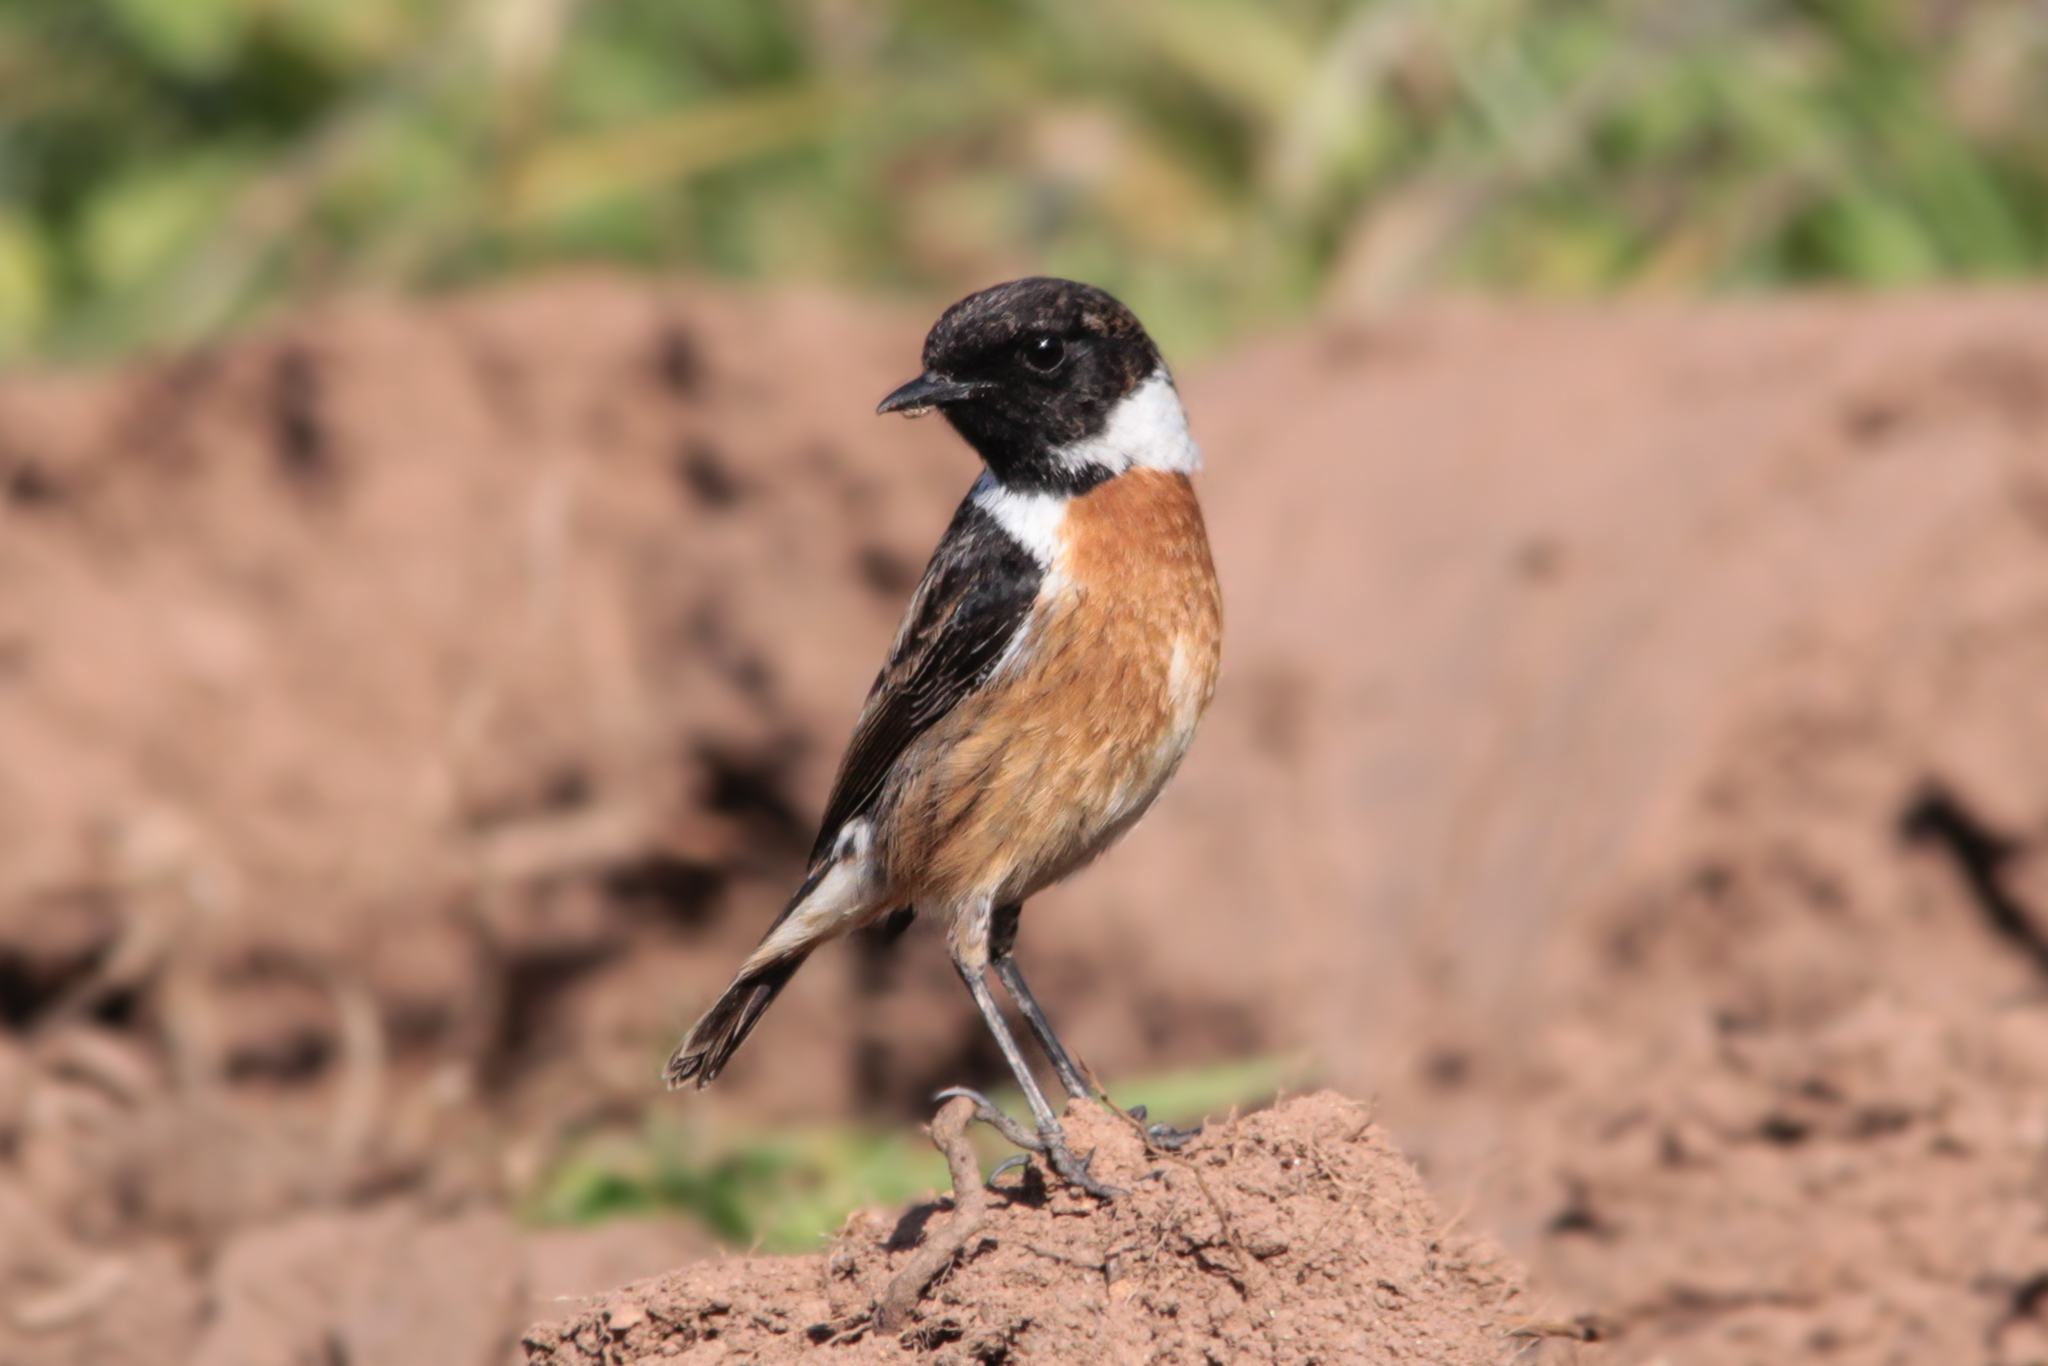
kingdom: Animalia
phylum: Chordata
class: Aves
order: Passeriformes
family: Muscicapidae
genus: Saxicola
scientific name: Saxicola rubicola
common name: European stonechat
